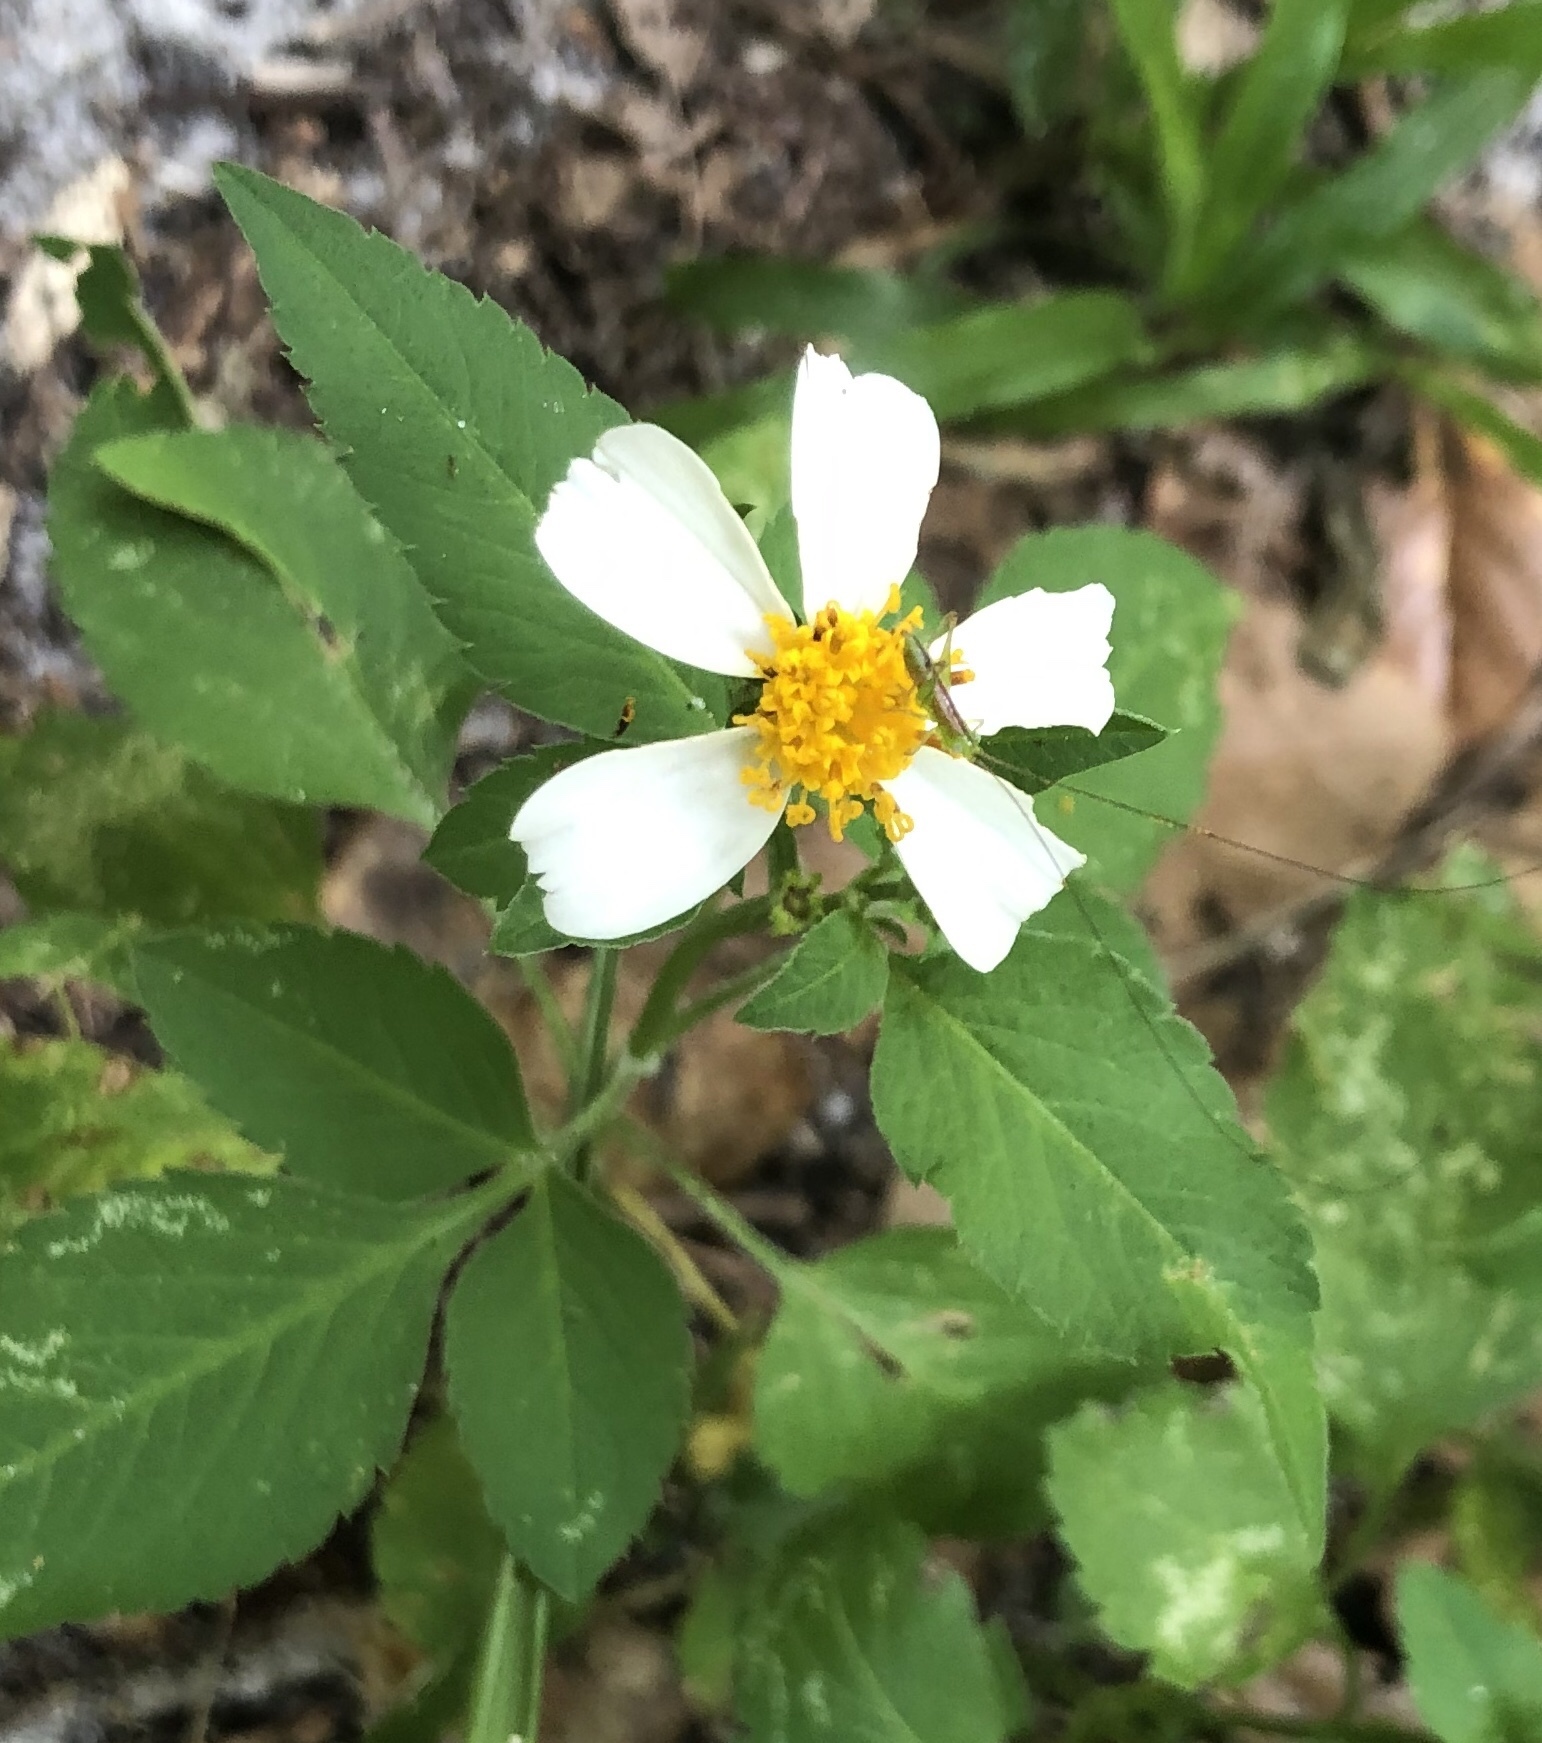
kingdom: Plantae
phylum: Tracheophyta
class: Magnoliopsida
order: Asterales
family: Asteraceae
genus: Bidens
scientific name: Bidens alba
